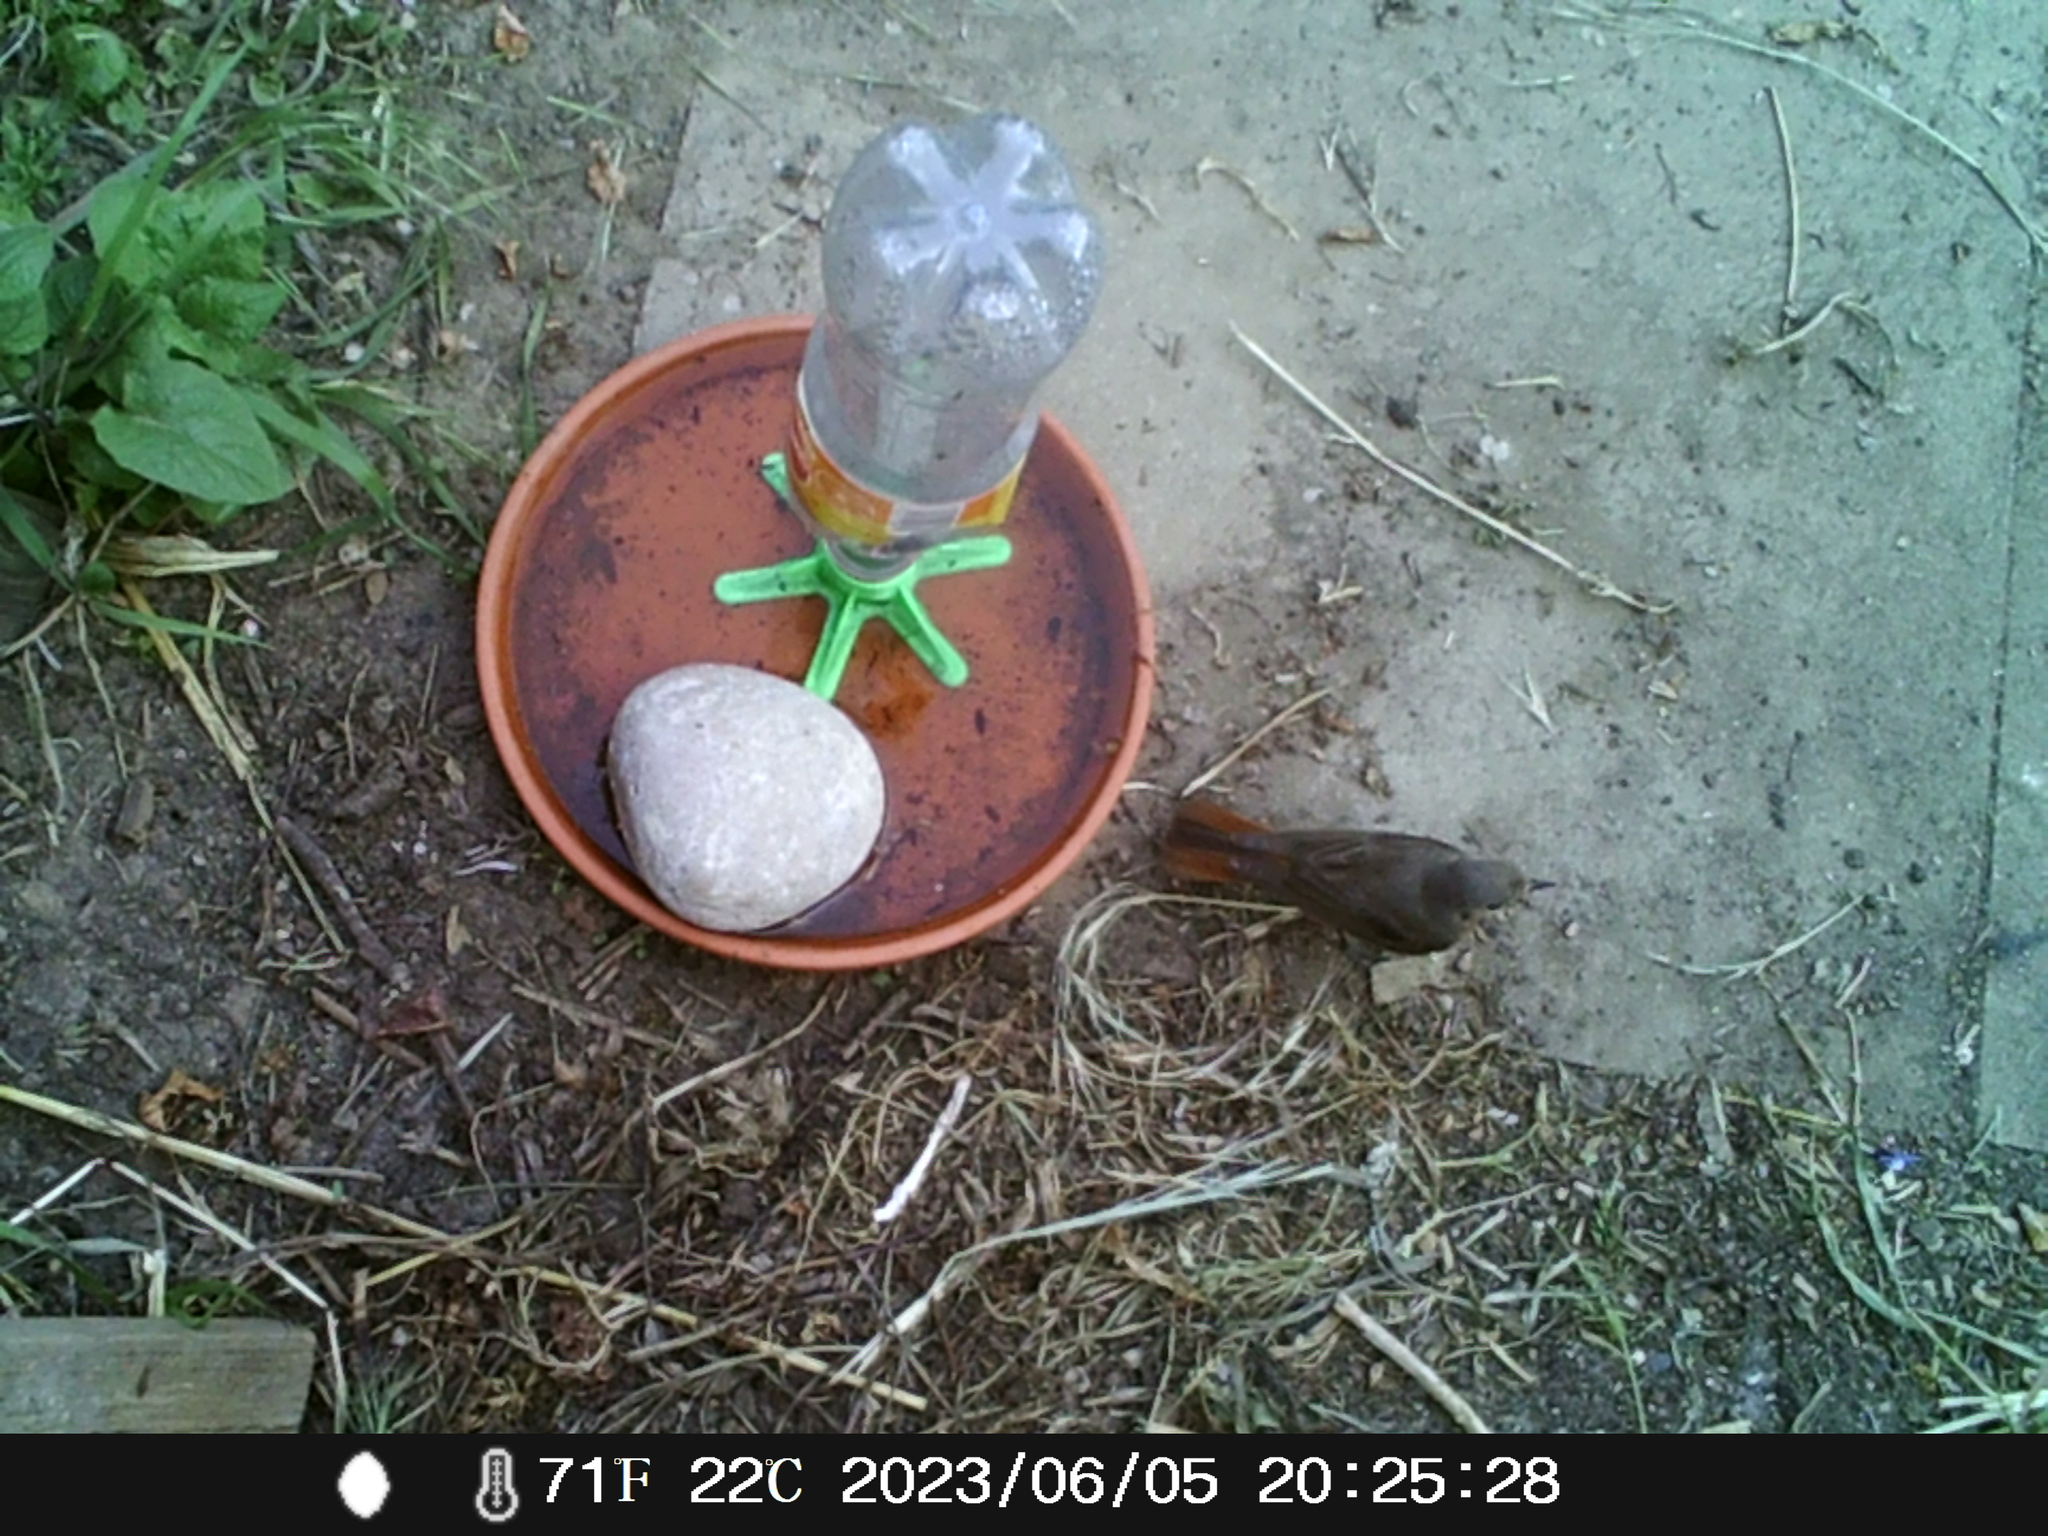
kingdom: Animalia
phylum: Chordata
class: Aves
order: Passeriformes
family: Muscicapidae
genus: Phoenicurus
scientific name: Phoenicurus ochruros
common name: Black redstart
